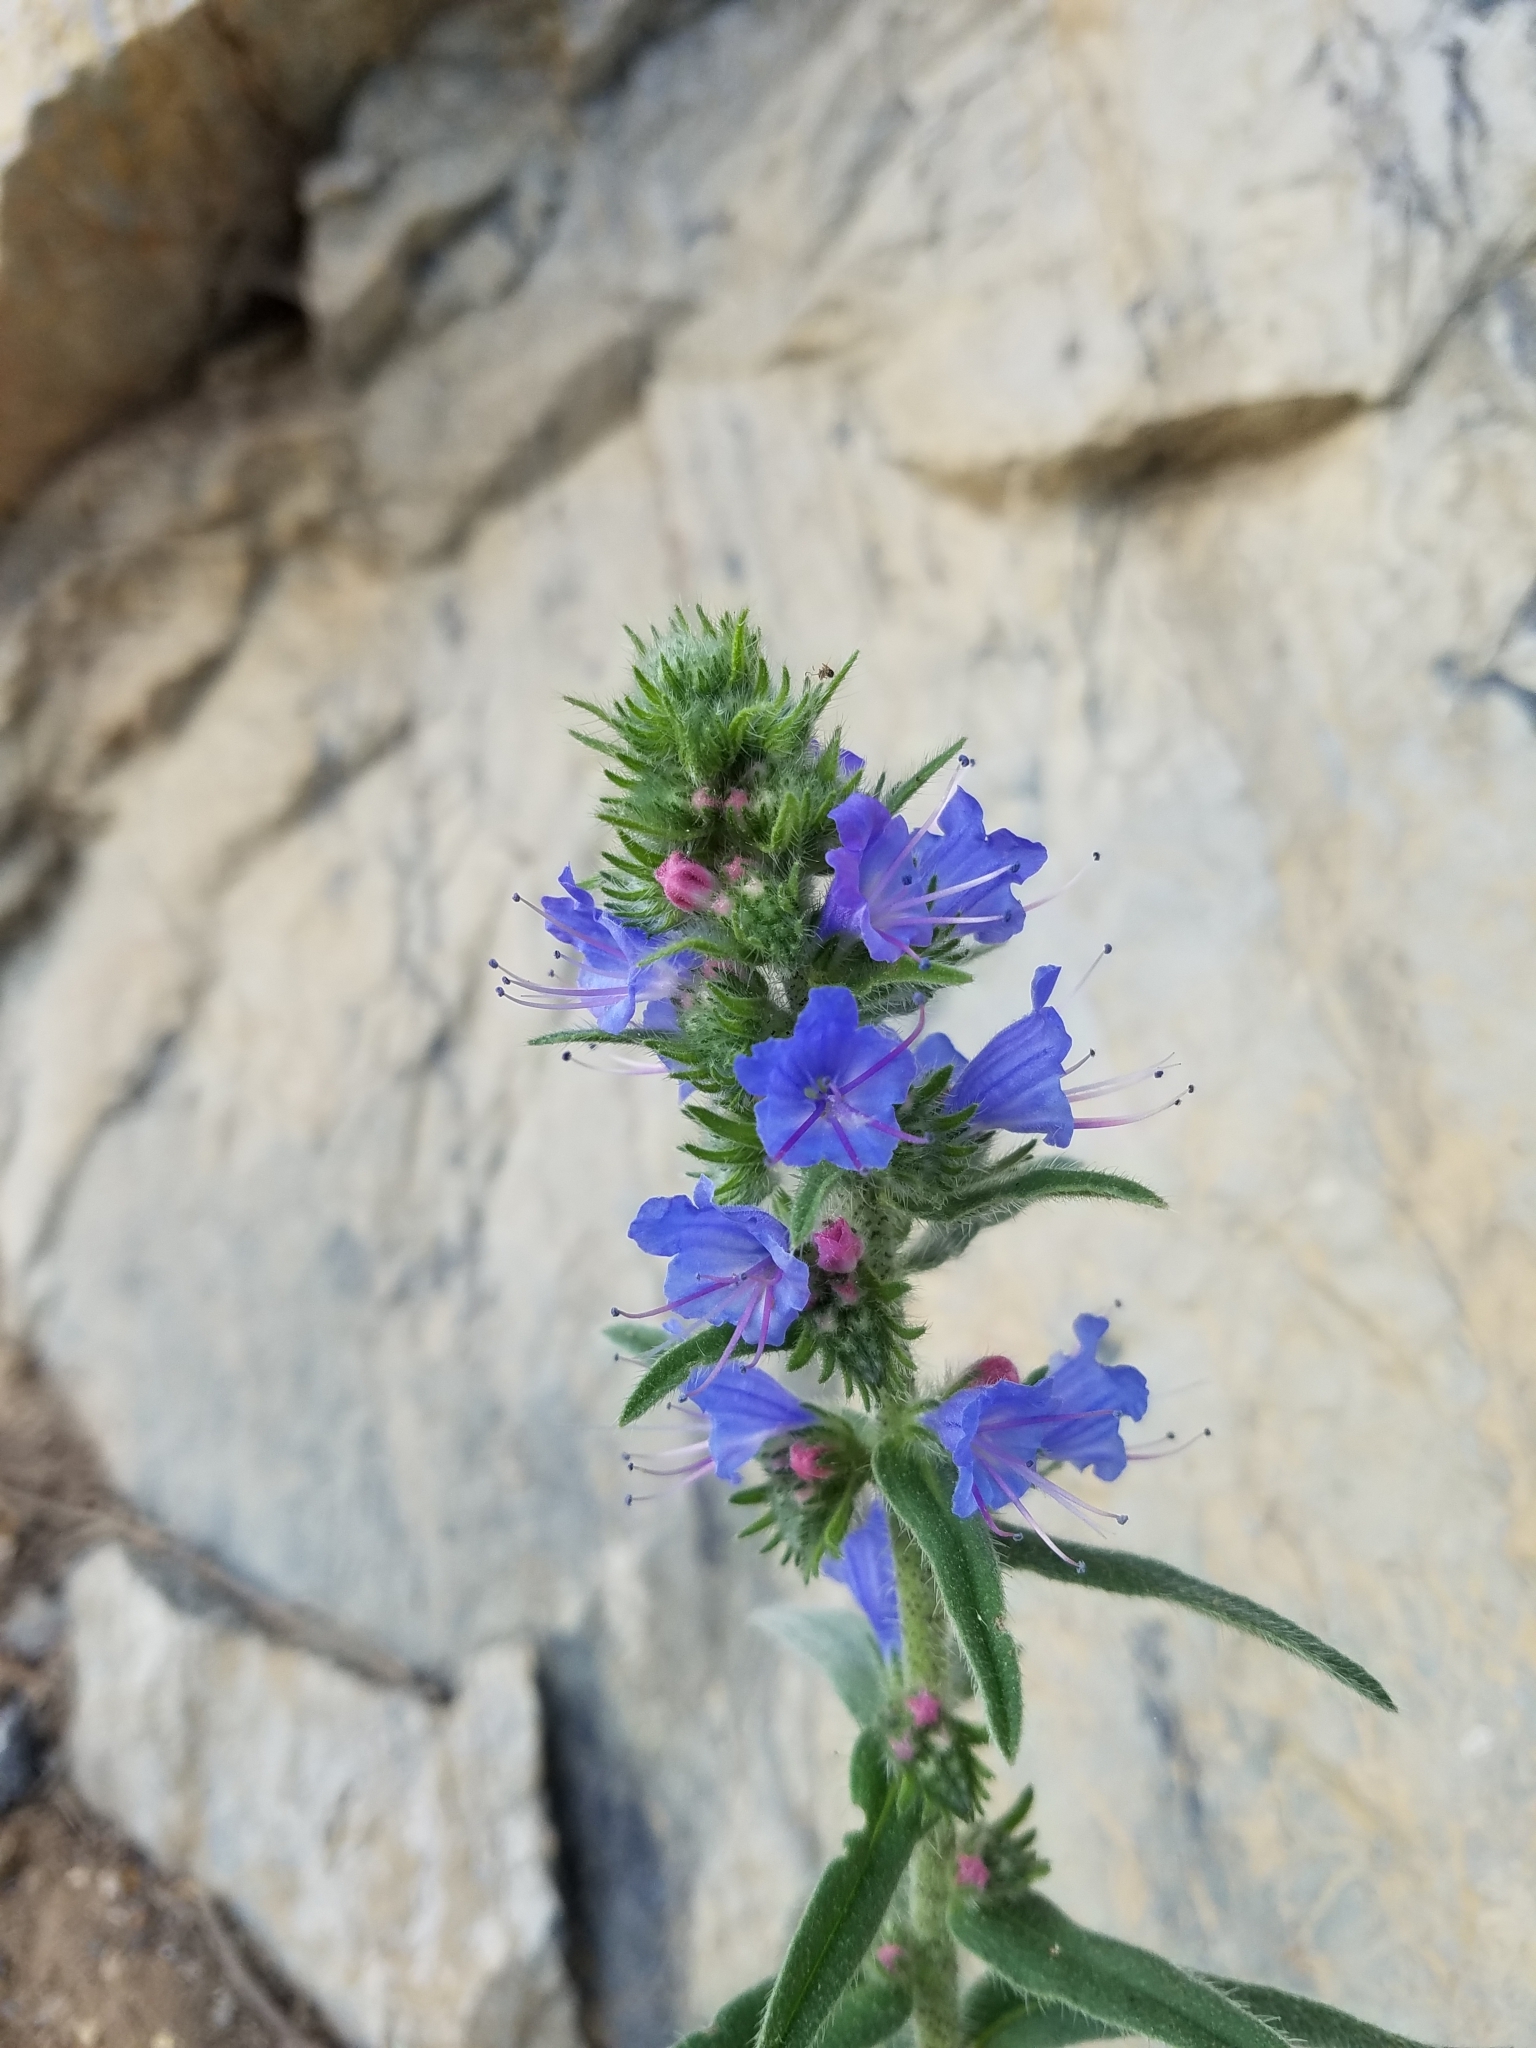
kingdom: Plantae
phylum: Tracheophyta
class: Magnoliopsida
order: Boraginales
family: Boraginaceae
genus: Echium
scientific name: Echium vulgare
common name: Common viper's bugloss
